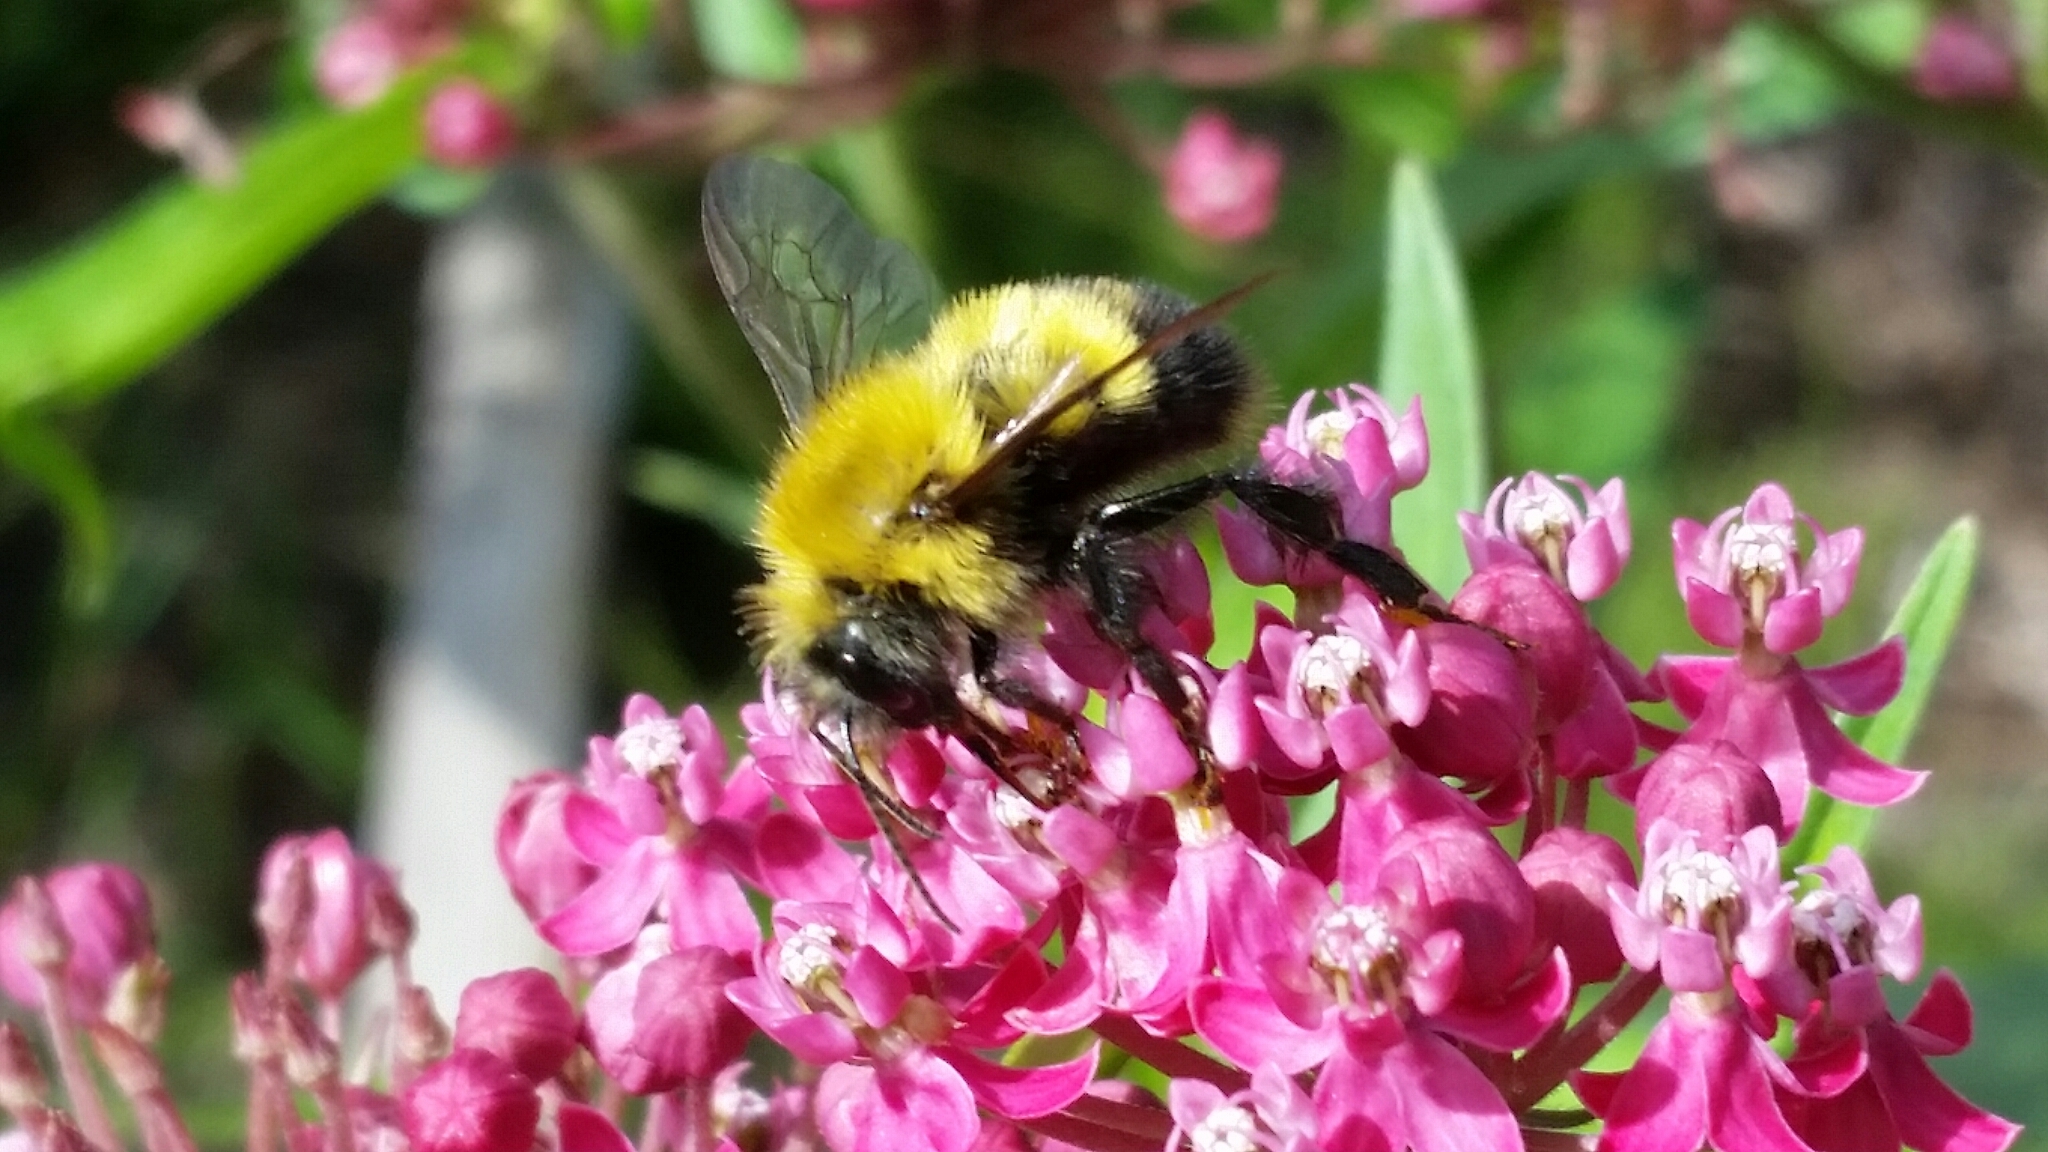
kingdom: Animalia
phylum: Arthropoda
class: Insecta
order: Hymenoptera
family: Apidae
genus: Bombus
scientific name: Bombus perplexus
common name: Confusing bumble bee
